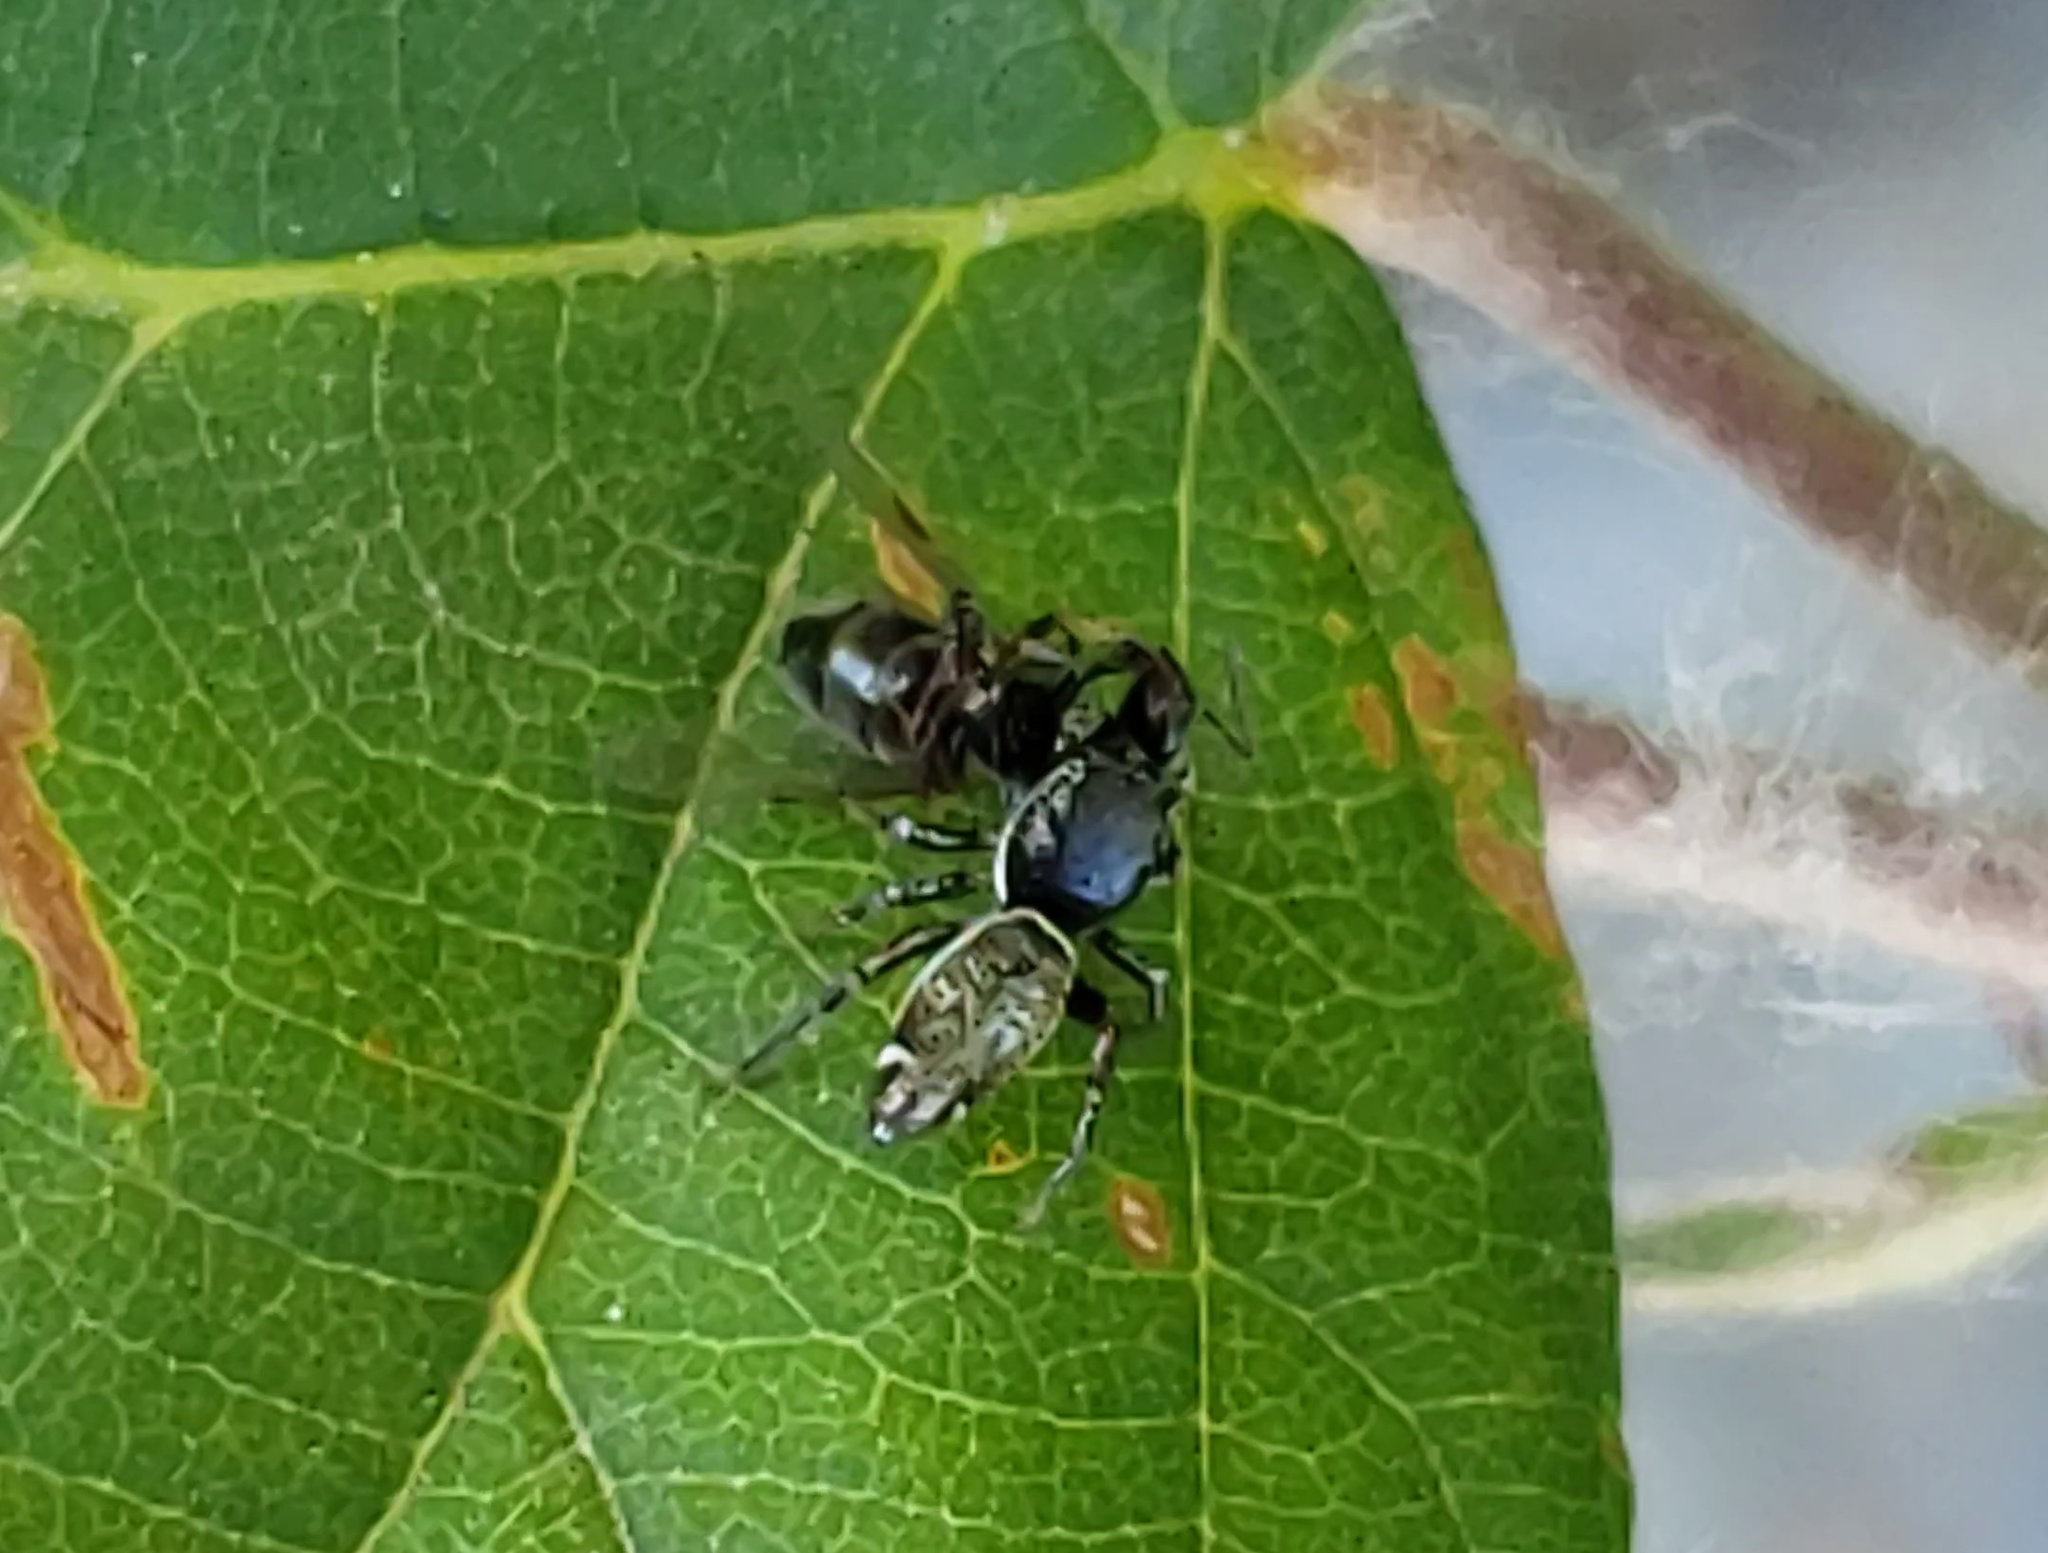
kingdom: Animalia
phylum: Arthropoda
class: Arachnida
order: Araneae
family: Salticidae
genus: Sassacus
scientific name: Sassacus vitis
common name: Jumping spiders
